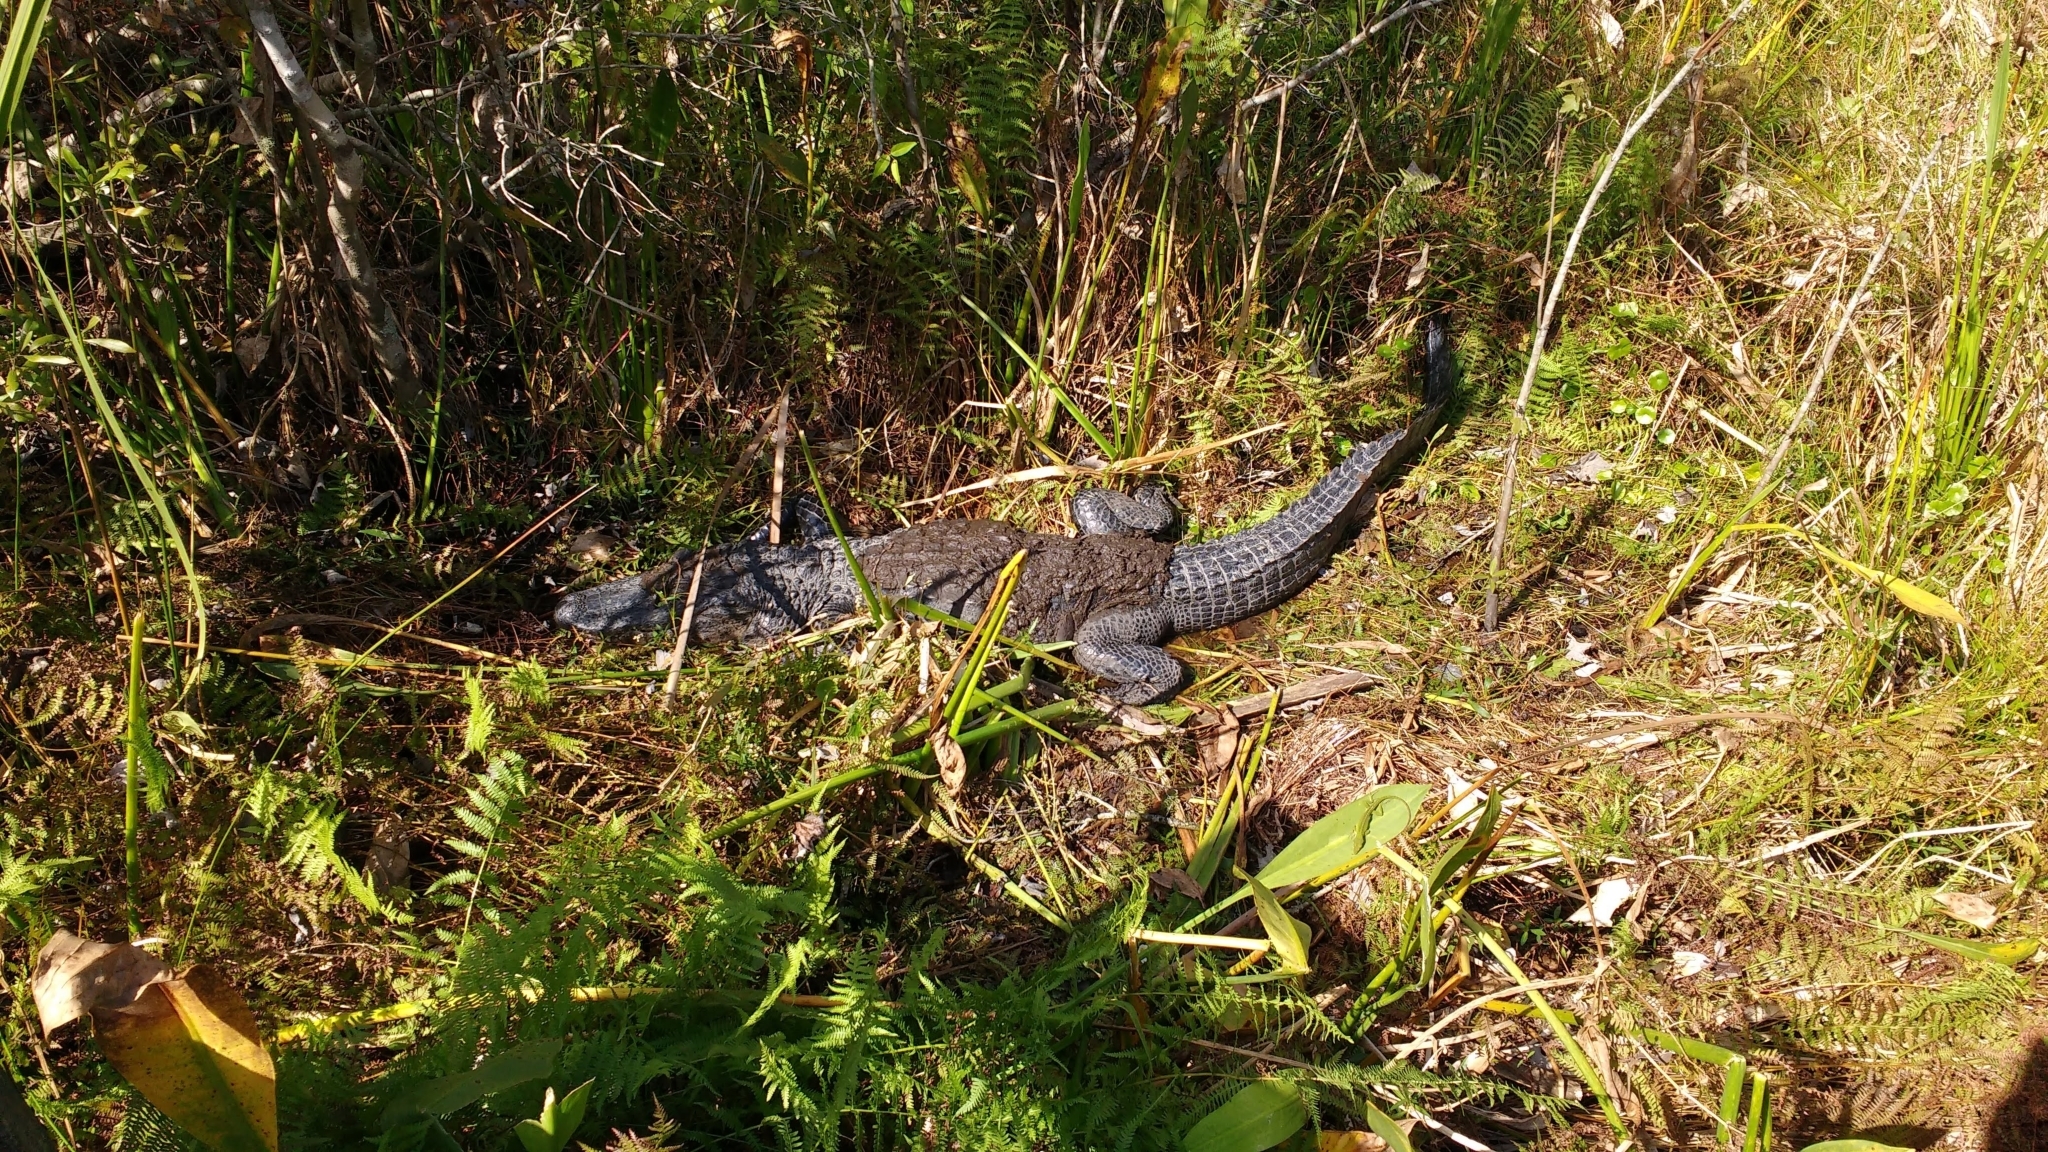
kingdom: Animalia
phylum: Chordata
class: Crocodylia
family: Alligatoridae
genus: Alligator
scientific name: Alligator mississippiensis
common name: American alligator
